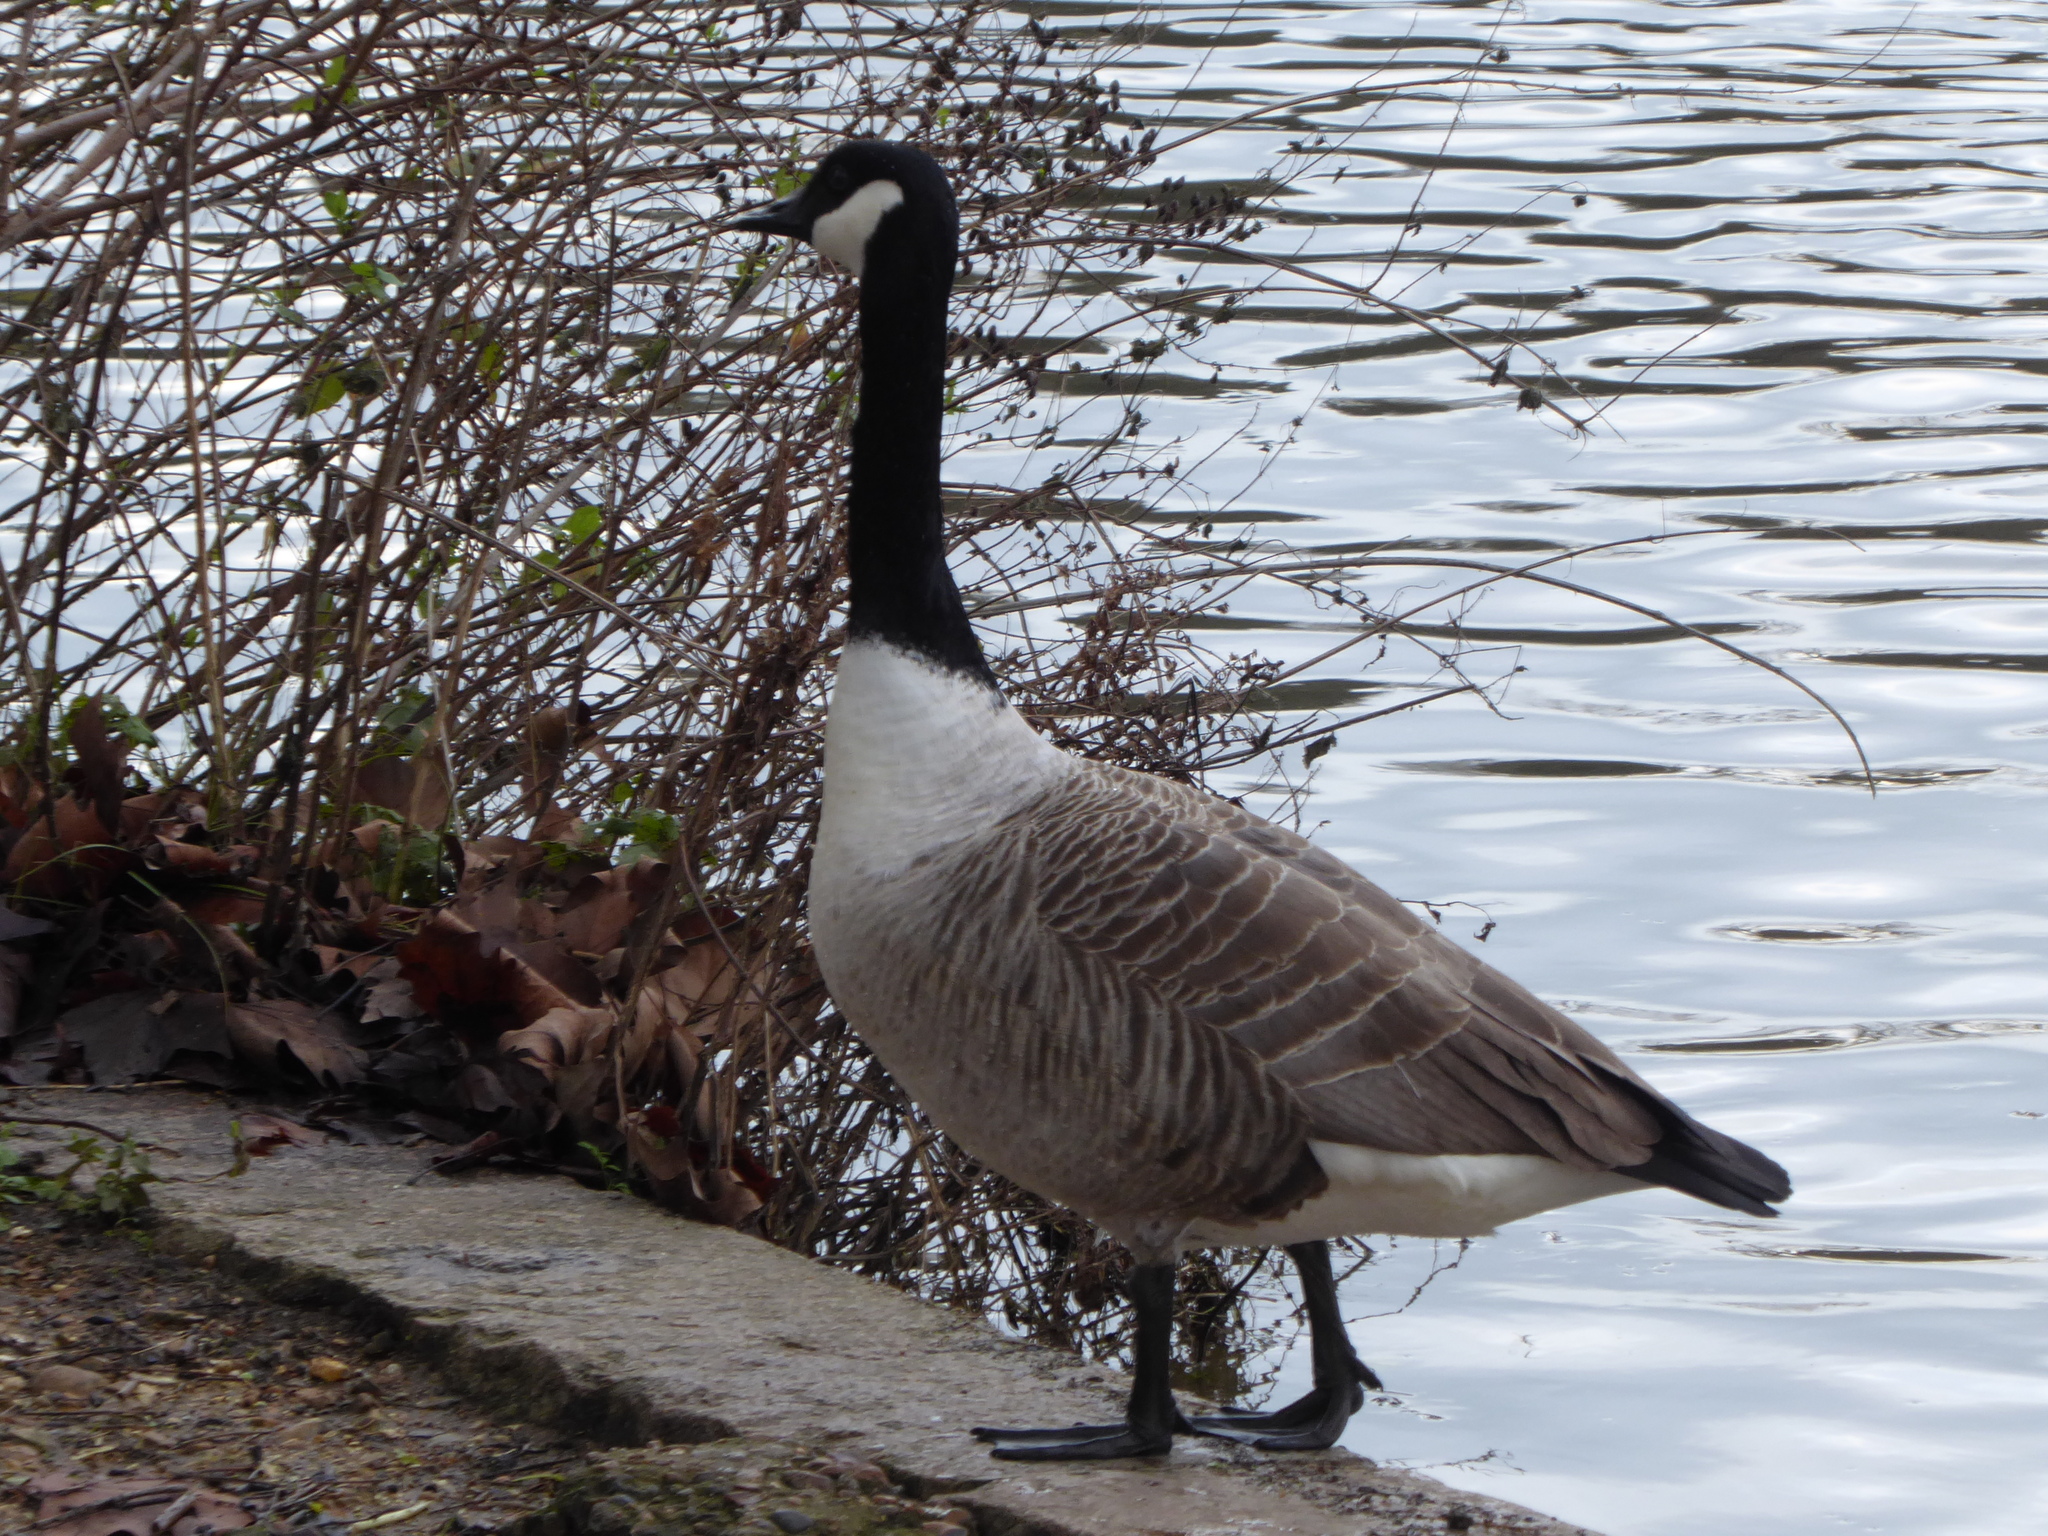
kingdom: Animalia
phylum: Chordata
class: Aves
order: Anseriformes
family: Anatidae
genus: Branta
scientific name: Branta canadensis
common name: Canada goose
